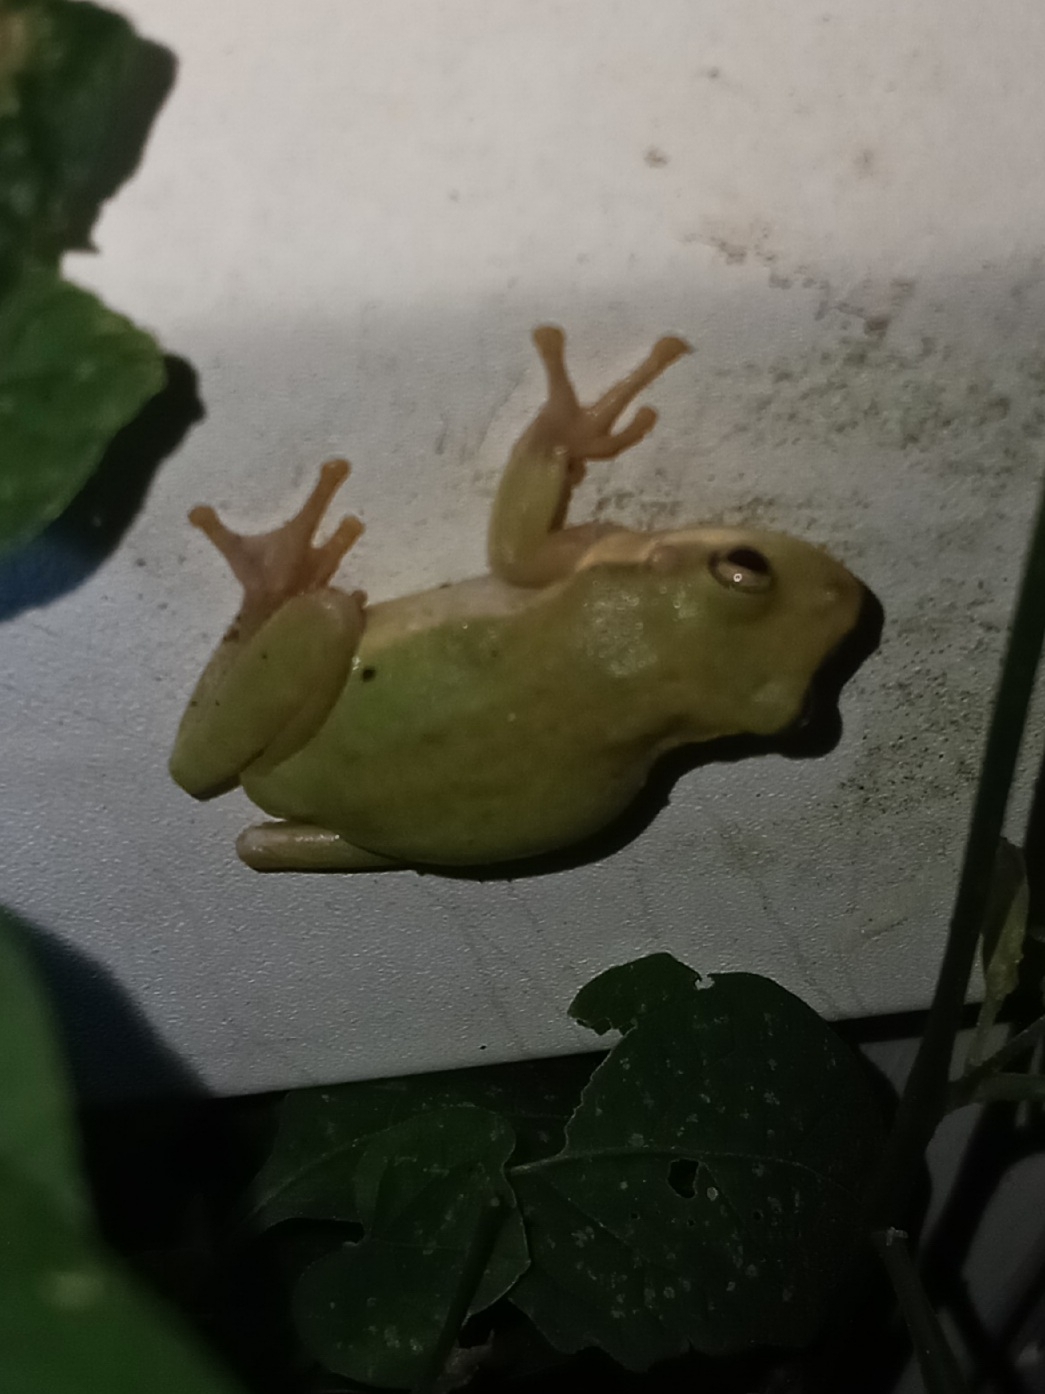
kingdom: Animalia
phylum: Chordata
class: Amphibia
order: Anura
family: Hylidae
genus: Dryophytes
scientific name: Dryophytes squirellus
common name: Squirrel treefrog
